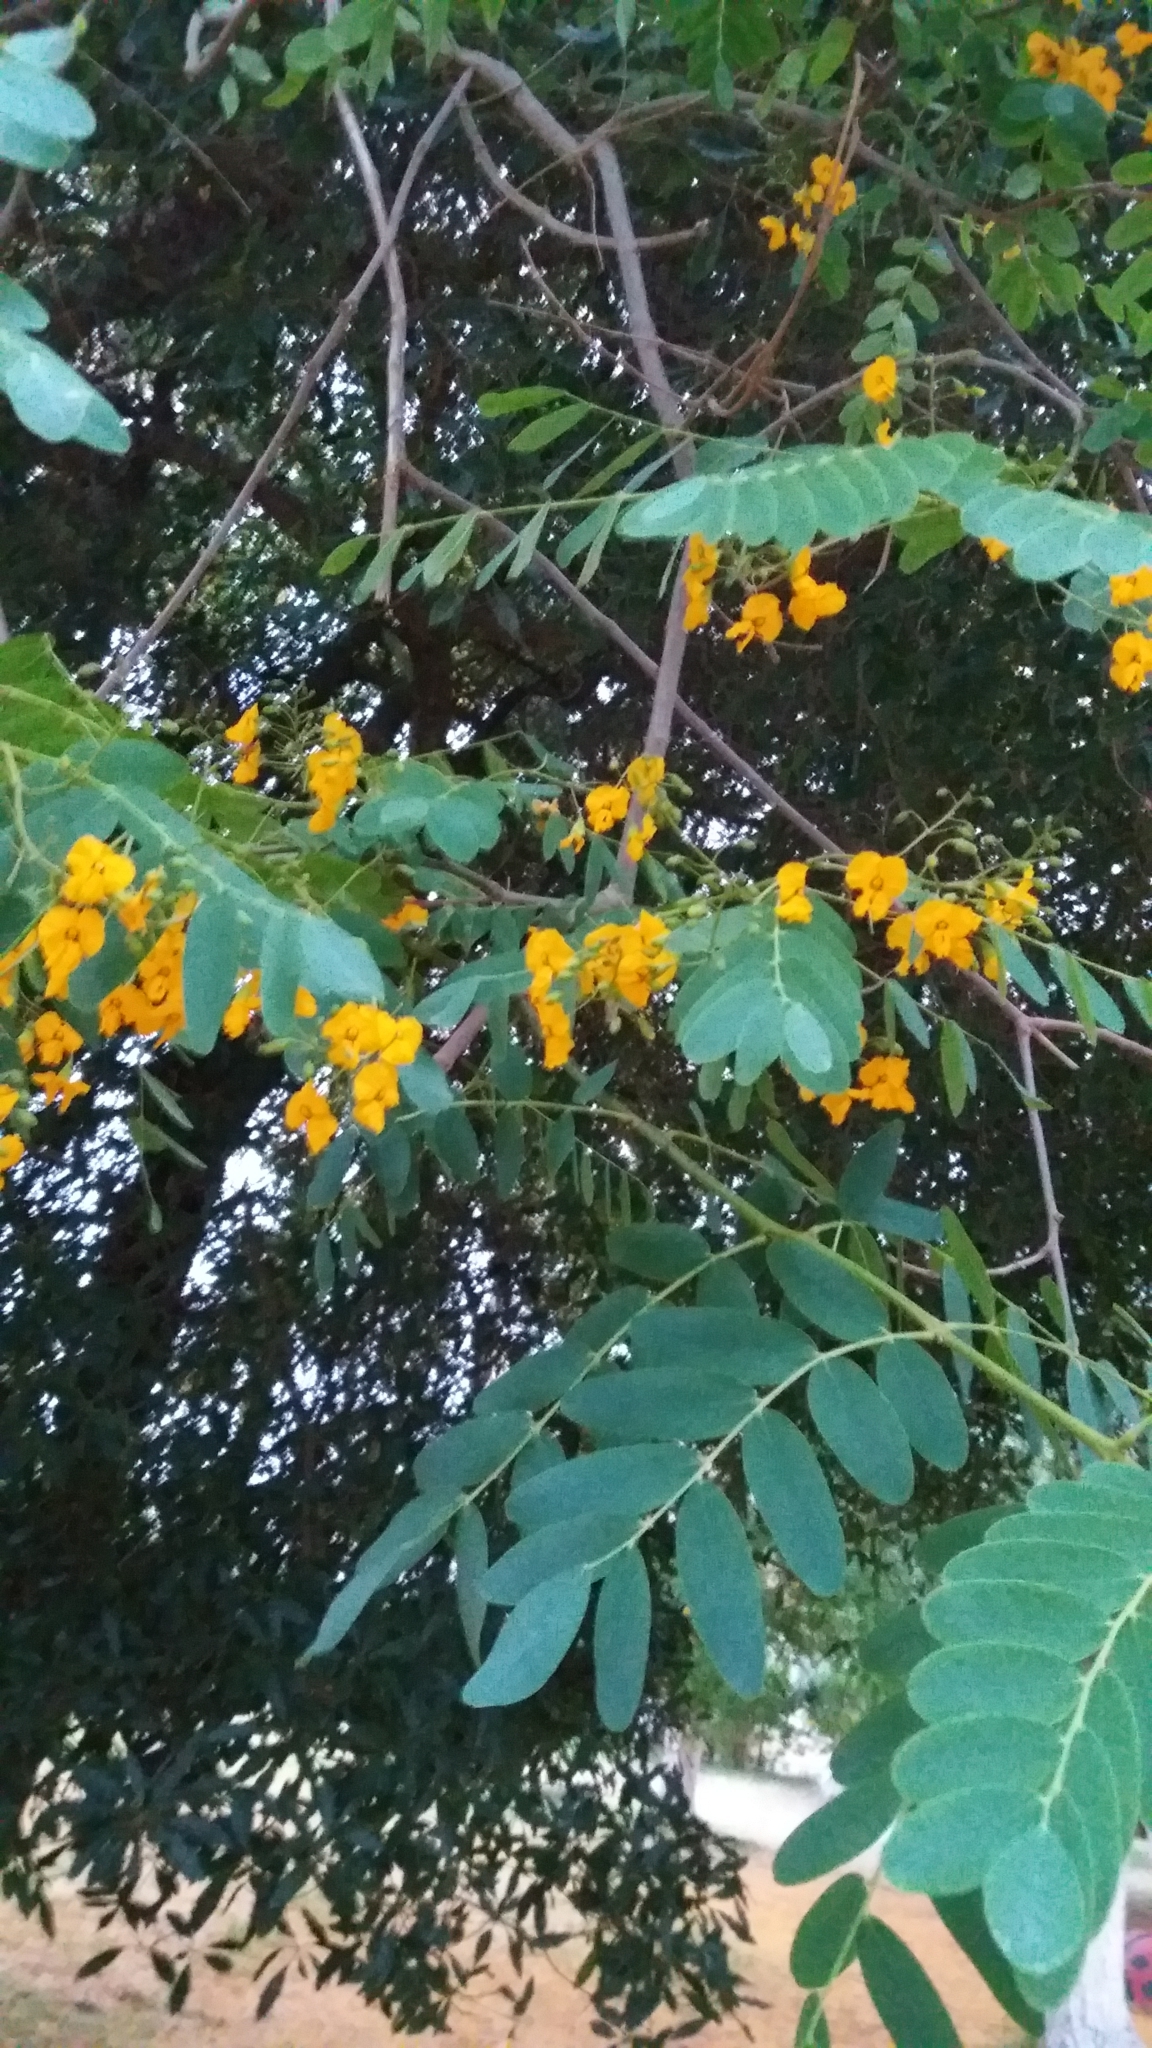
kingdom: Plantae
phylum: Tracheophyta
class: Magnoliopsida
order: Fabales
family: Fabaceae
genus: Tipuana
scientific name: Tipuana tipu
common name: Tiputree
